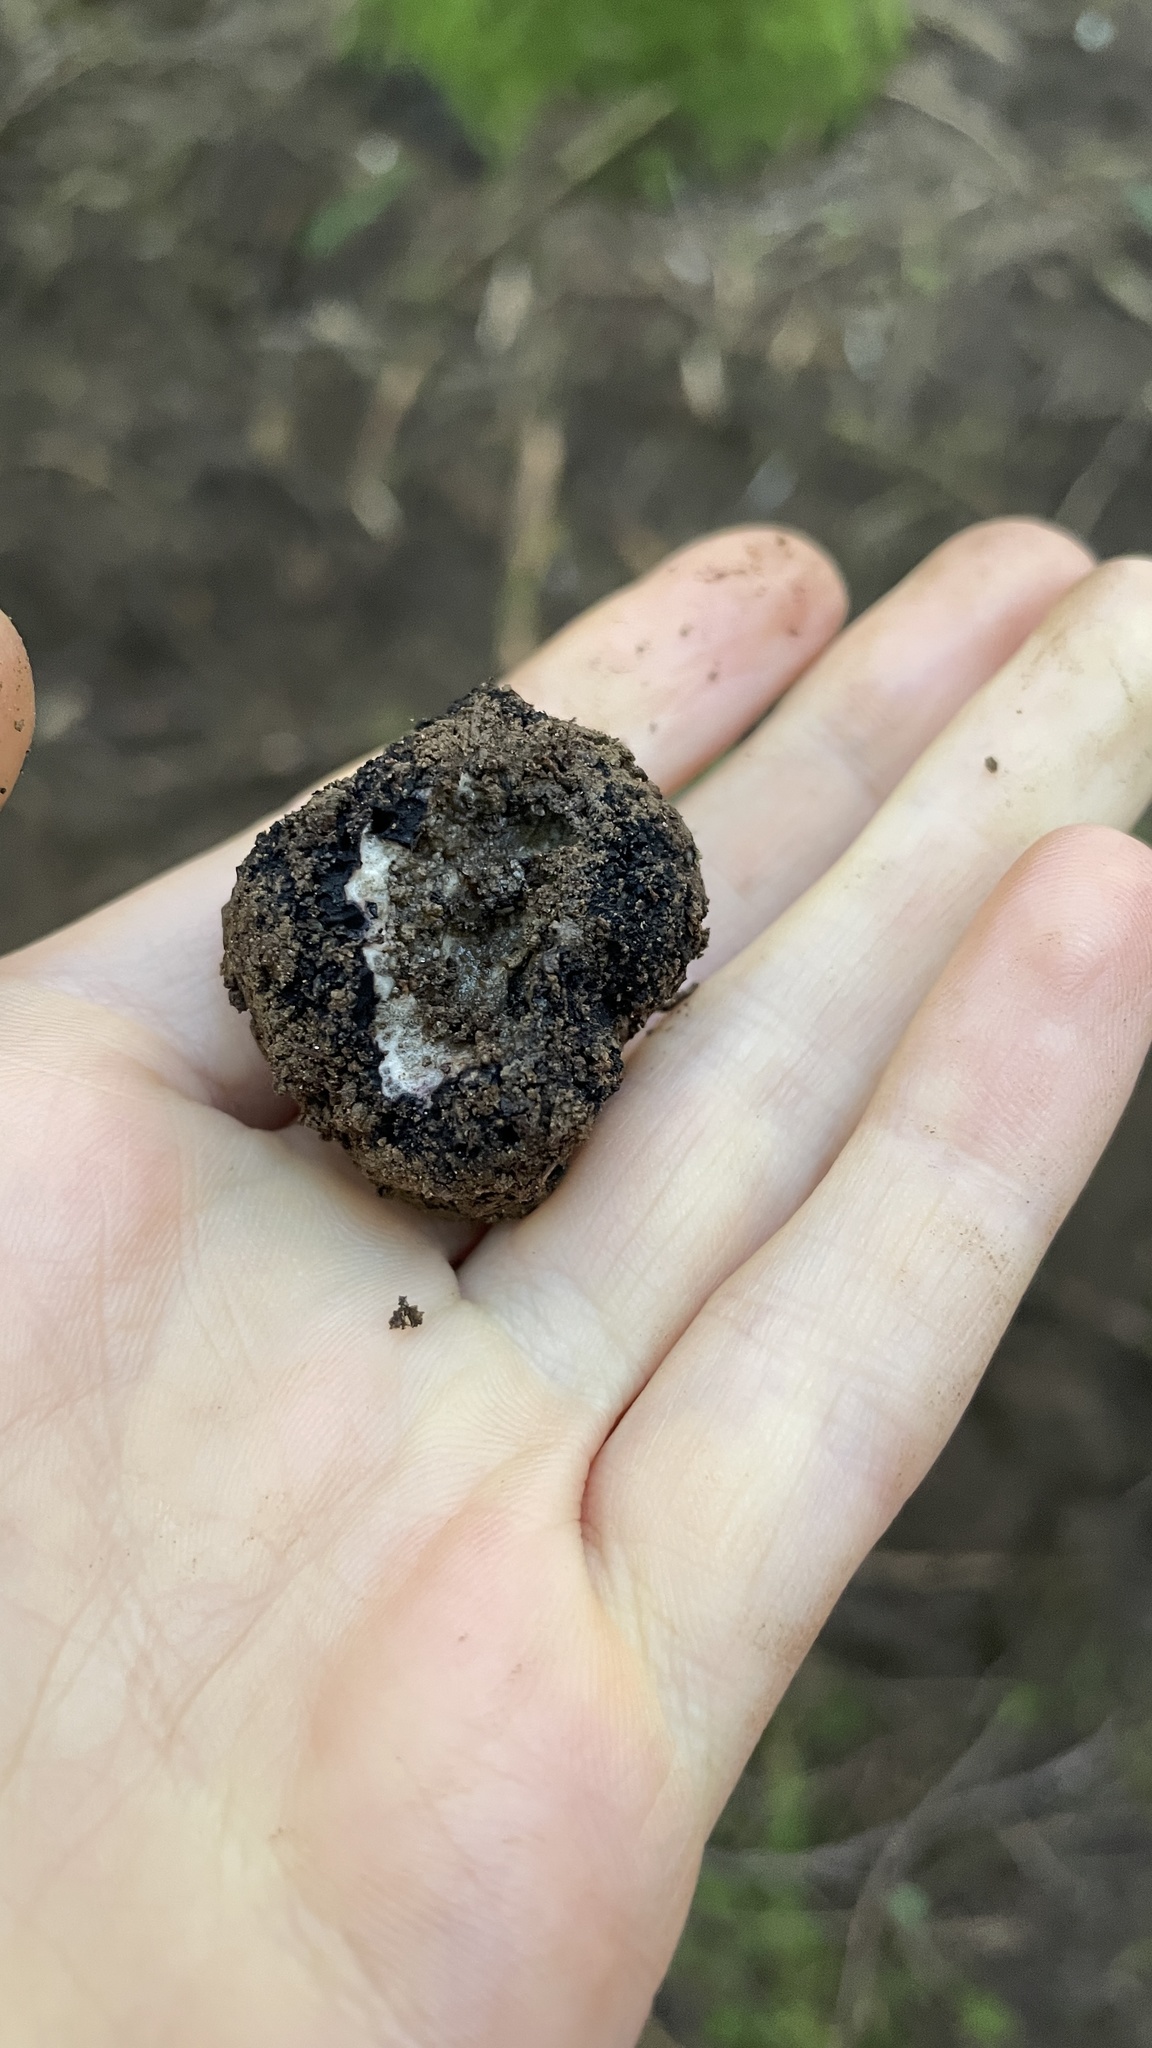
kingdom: Fungi
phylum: Ascomycota
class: Pezizomycetes
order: Pezizales
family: Morchellaceae
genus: Leucangium
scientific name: Leucangium carthusianum
